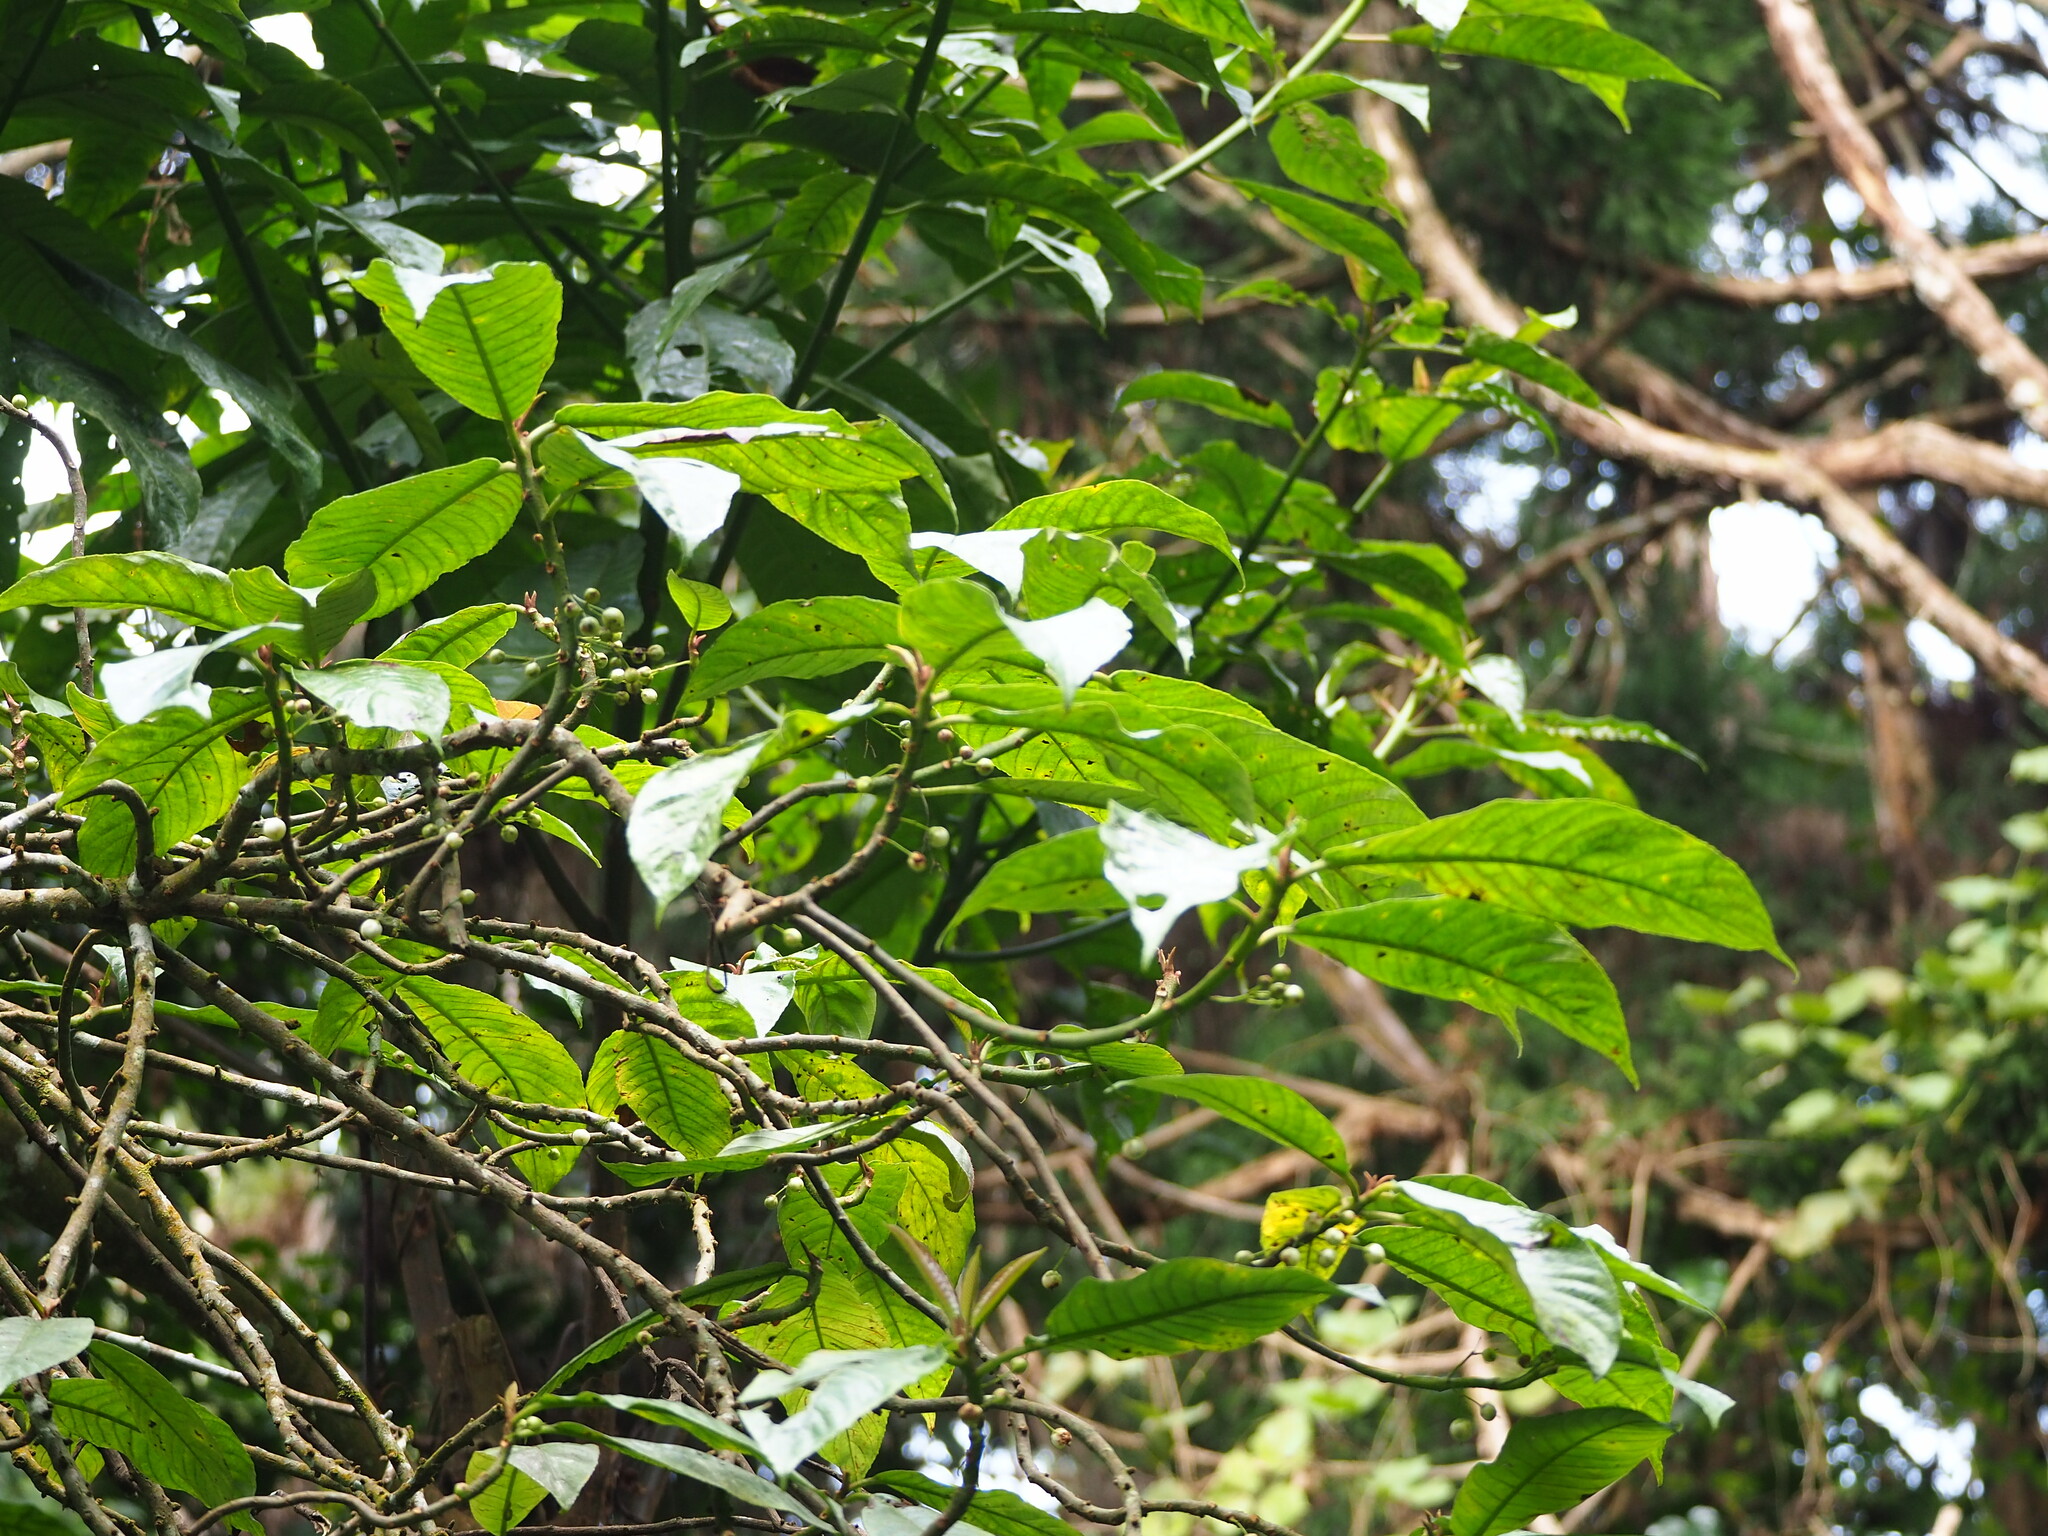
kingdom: Plantae
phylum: Tracheophyta
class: Magnoliopsida
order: Ericales
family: Actinidiaceae
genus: Saurauia
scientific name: Saurauia tristyla
